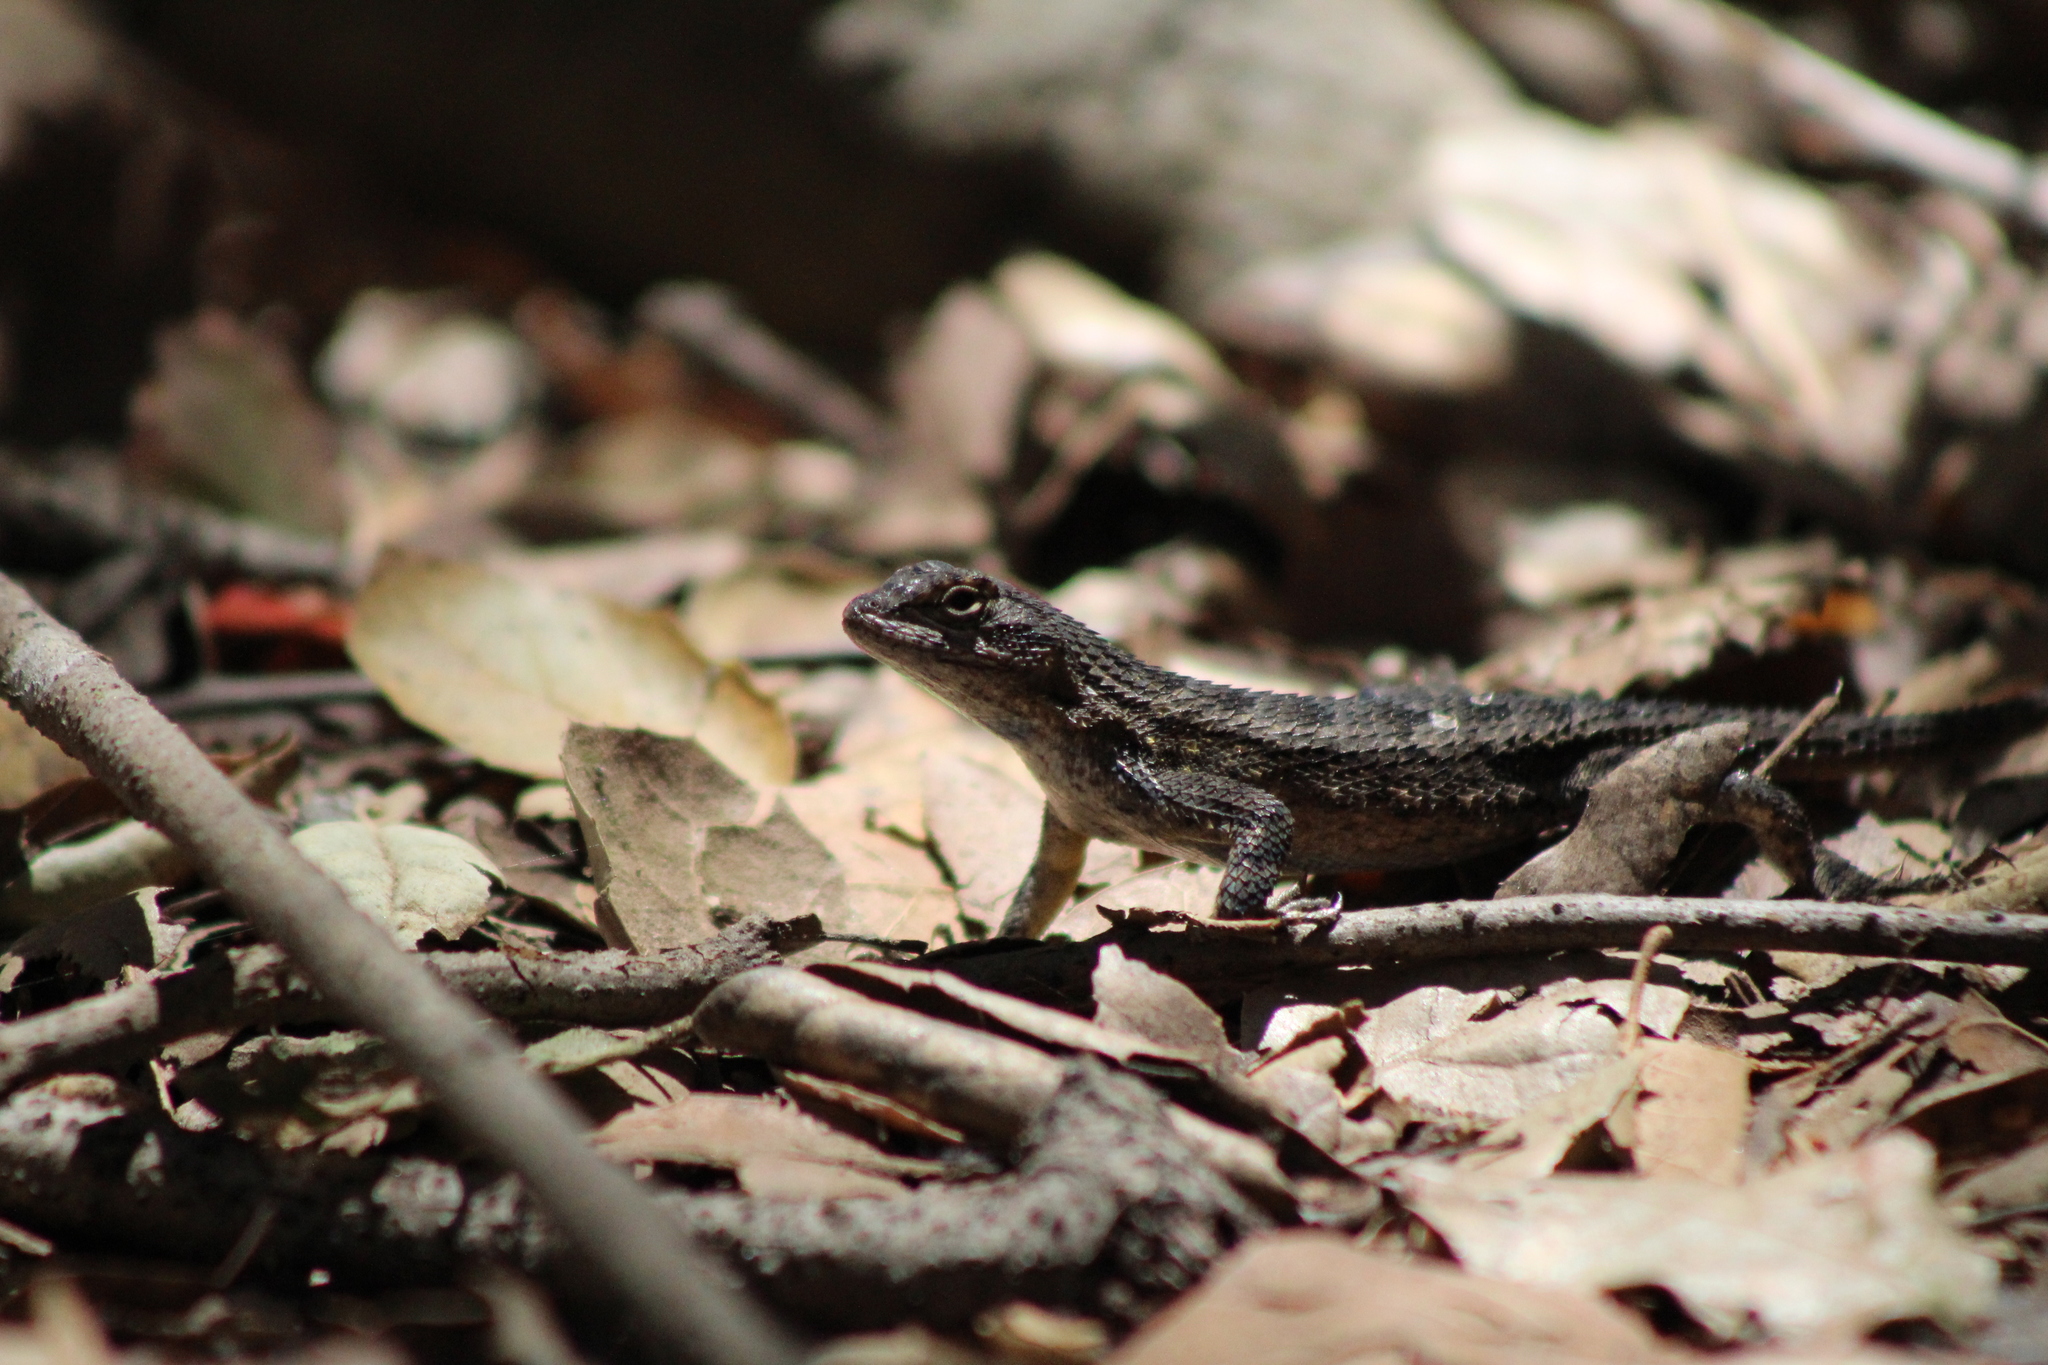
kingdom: Animalia
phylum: Chordata
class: Squamata
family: Phrynosomatidae
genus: Sceloporus
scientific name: Sceloporus occidentalis
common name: Western fence lizard
